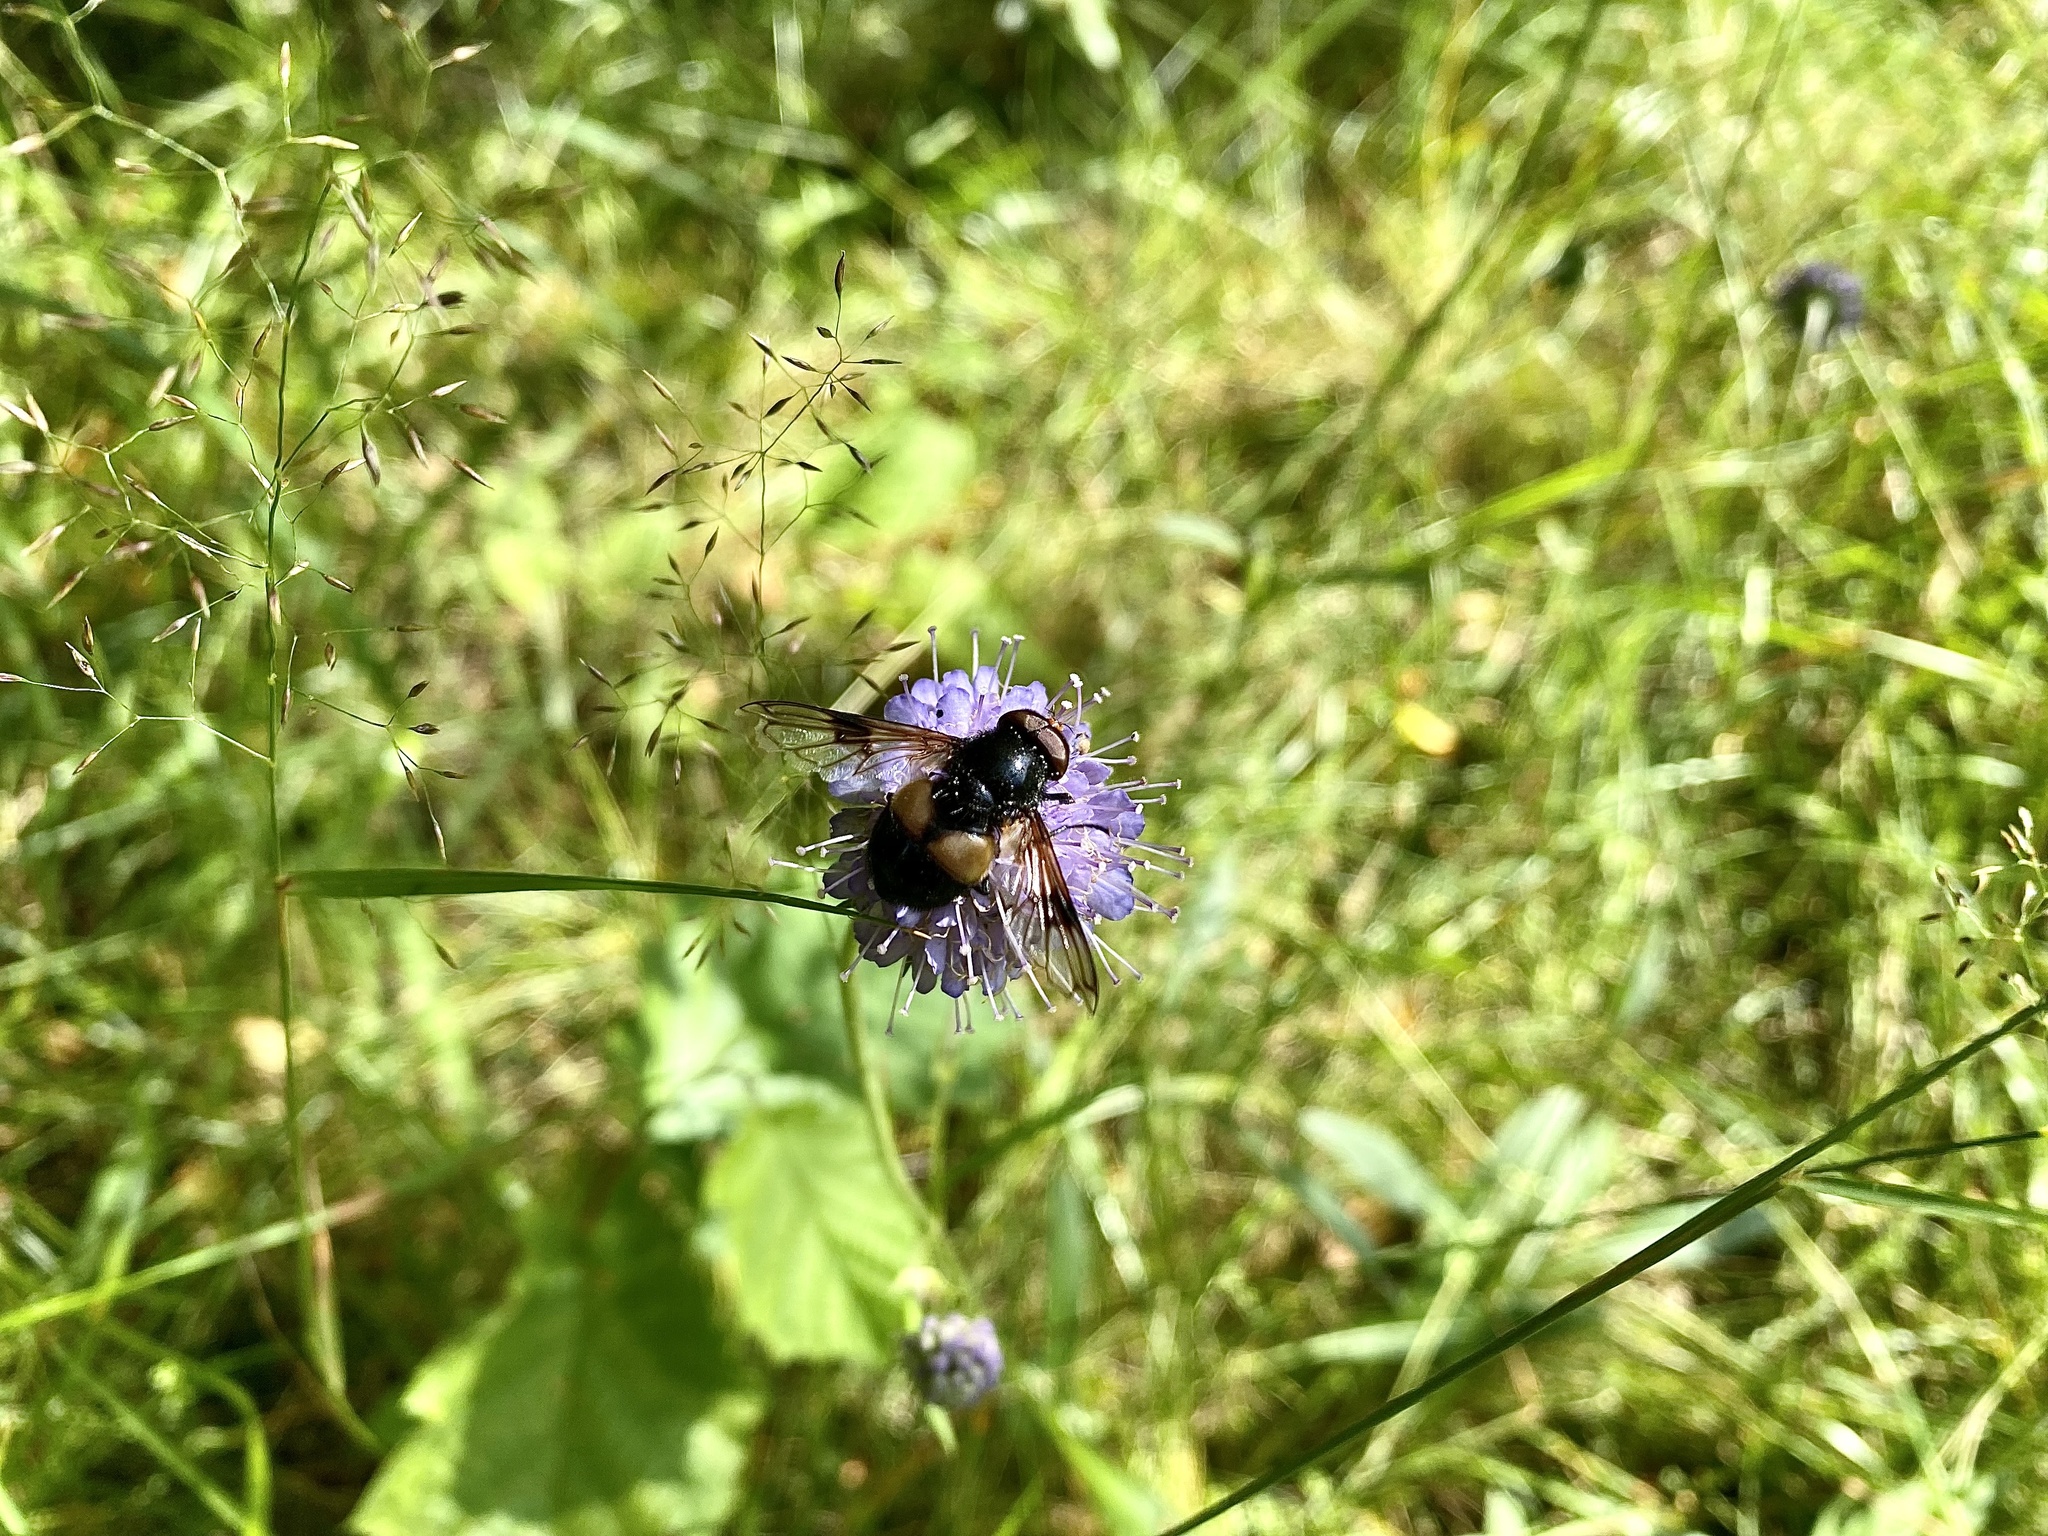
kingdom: Animalia
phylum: Arthropoda
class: Insecta
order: Diptera
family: Syrphidae
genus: Volucella
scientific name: Volucella pellucens
